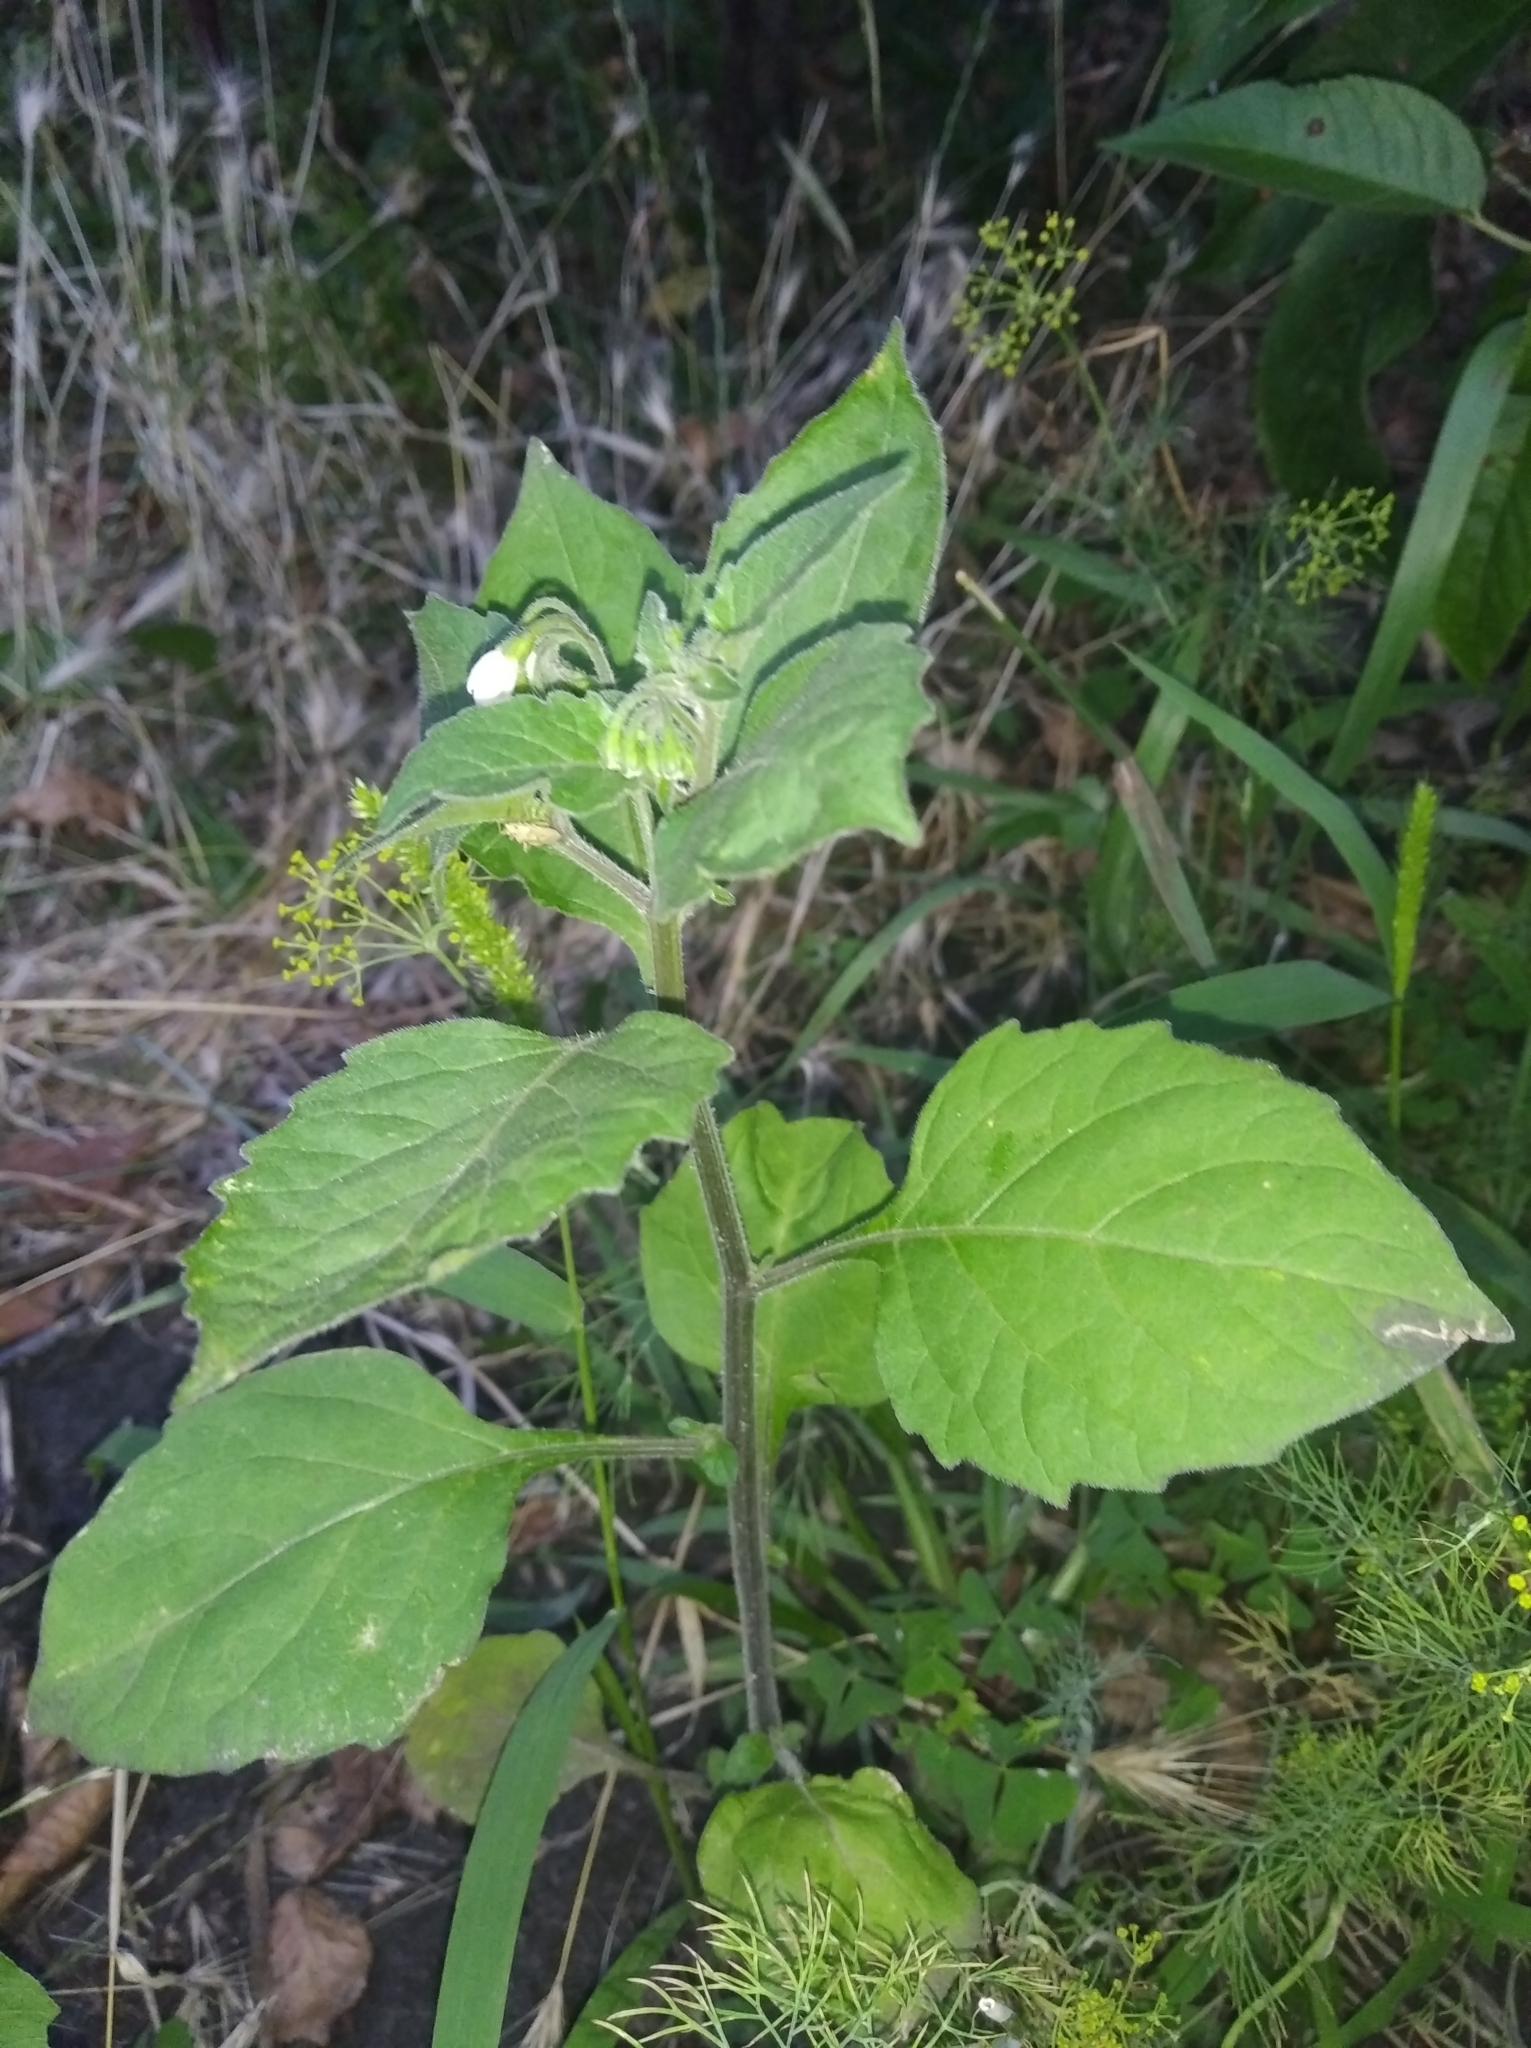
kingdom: Plantae
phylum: Tracheophyta
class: Magnoliopsida
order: Solanales
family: Solanaceae
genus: Solanum
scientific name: Solanum nigrum
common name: Black nightshade
